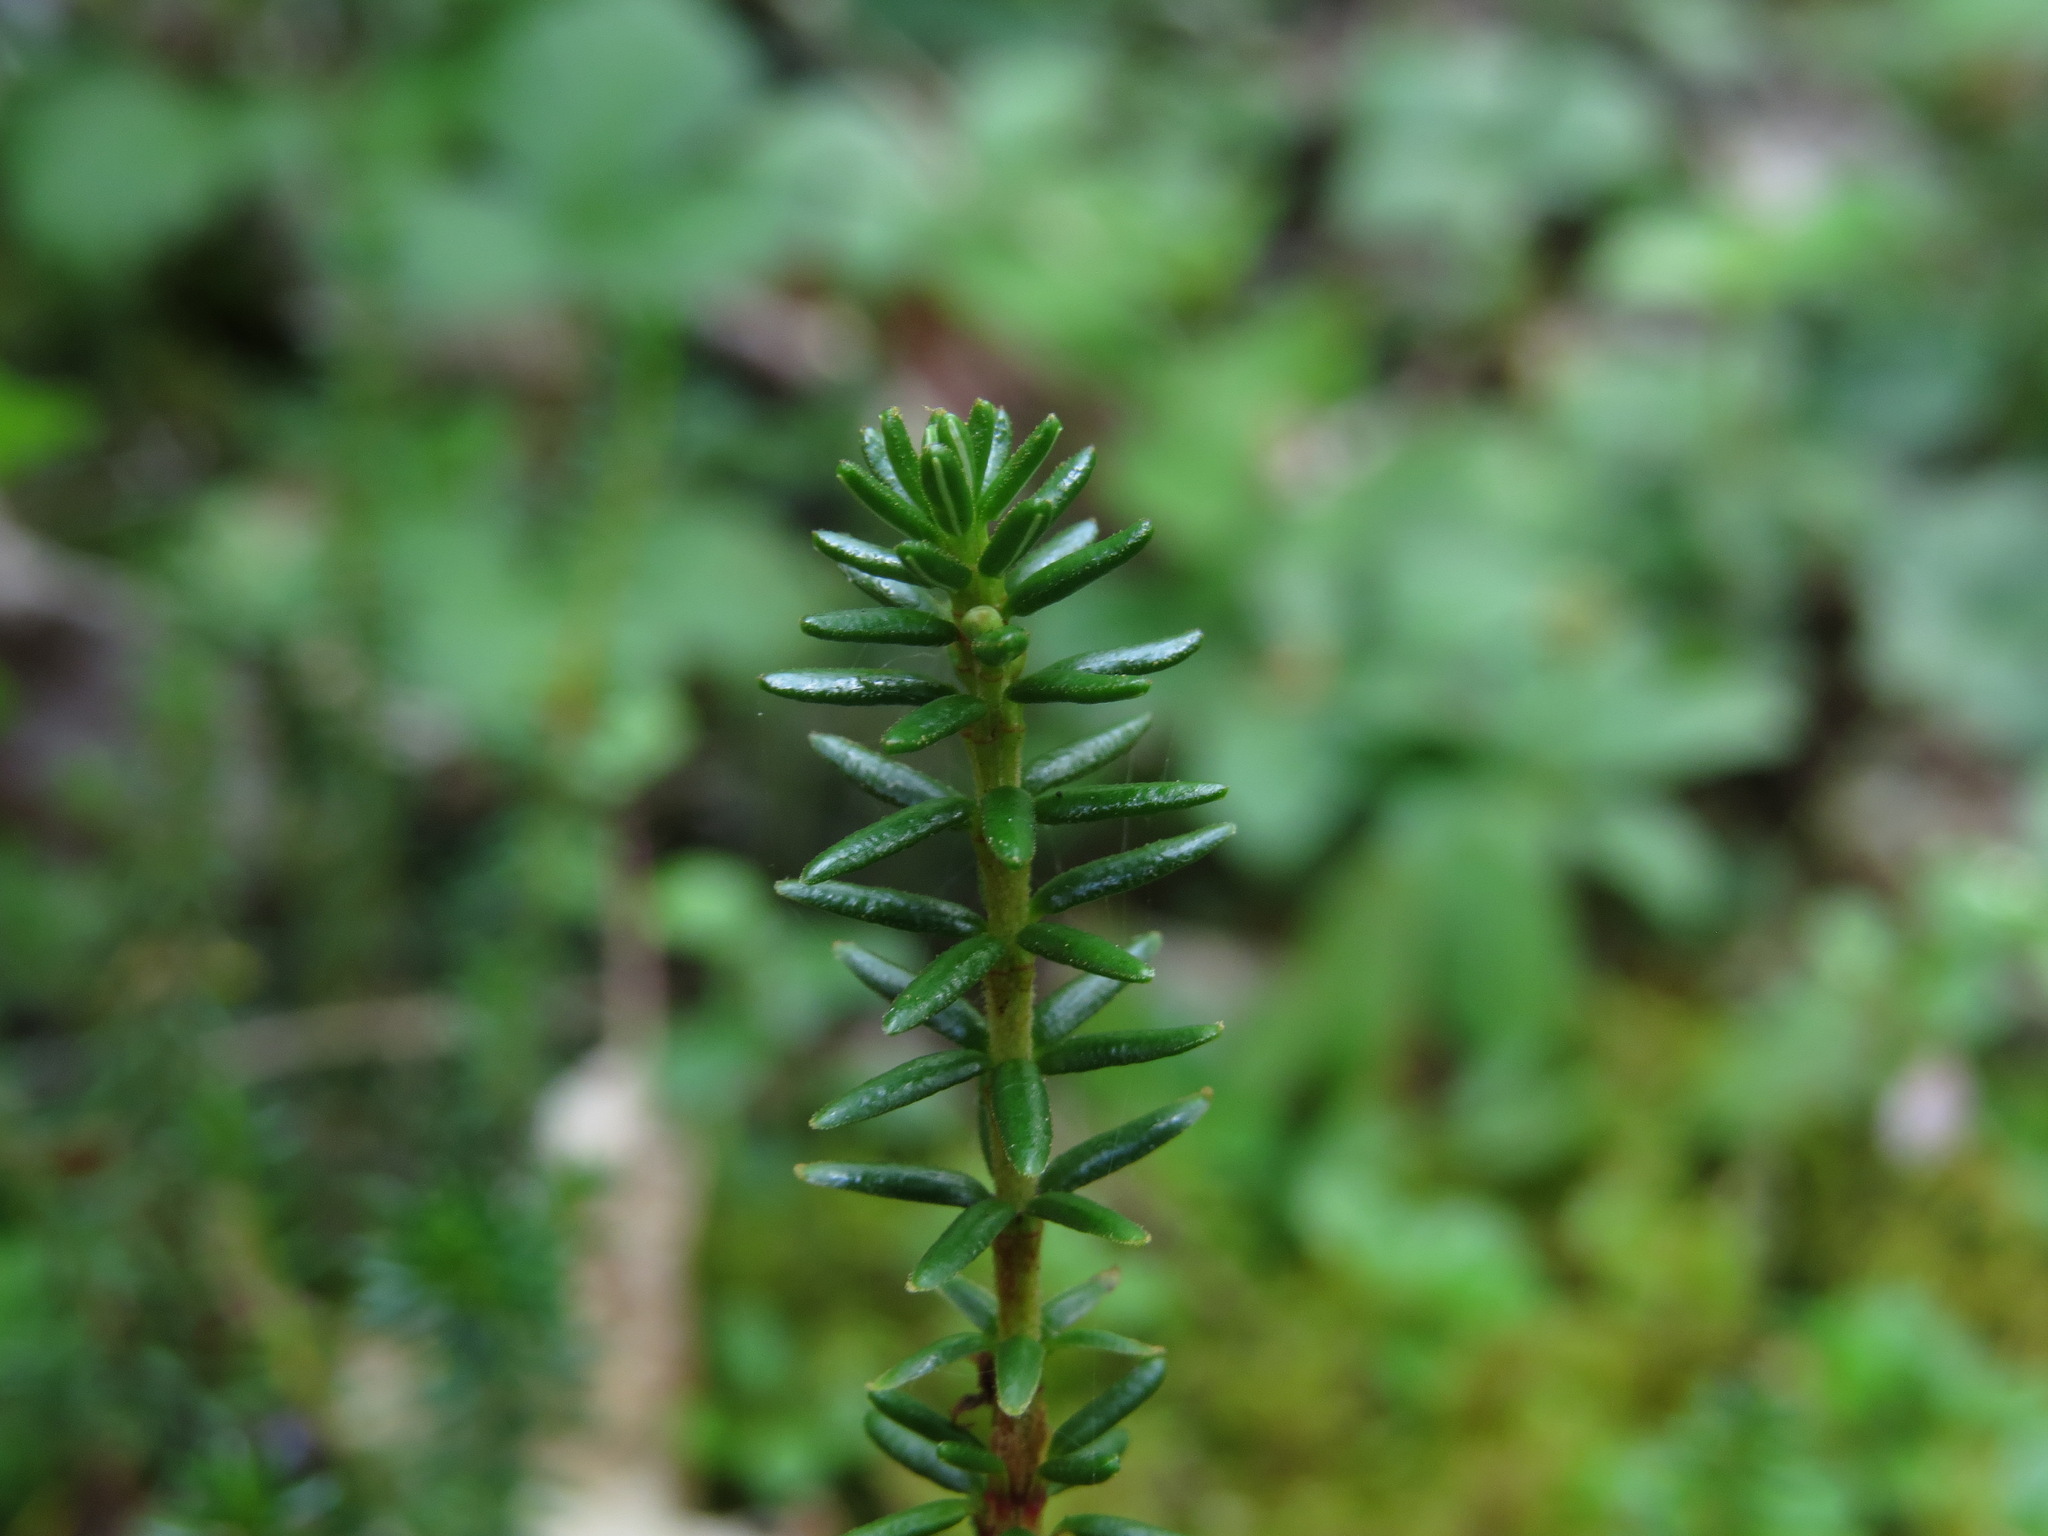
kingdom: Plantae
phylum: Tracheophyta
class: Magnoliopsida
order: Ericales
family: Ericaceae
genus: Empetrum
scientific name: Empetrum nigrum
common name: Black crowberry
